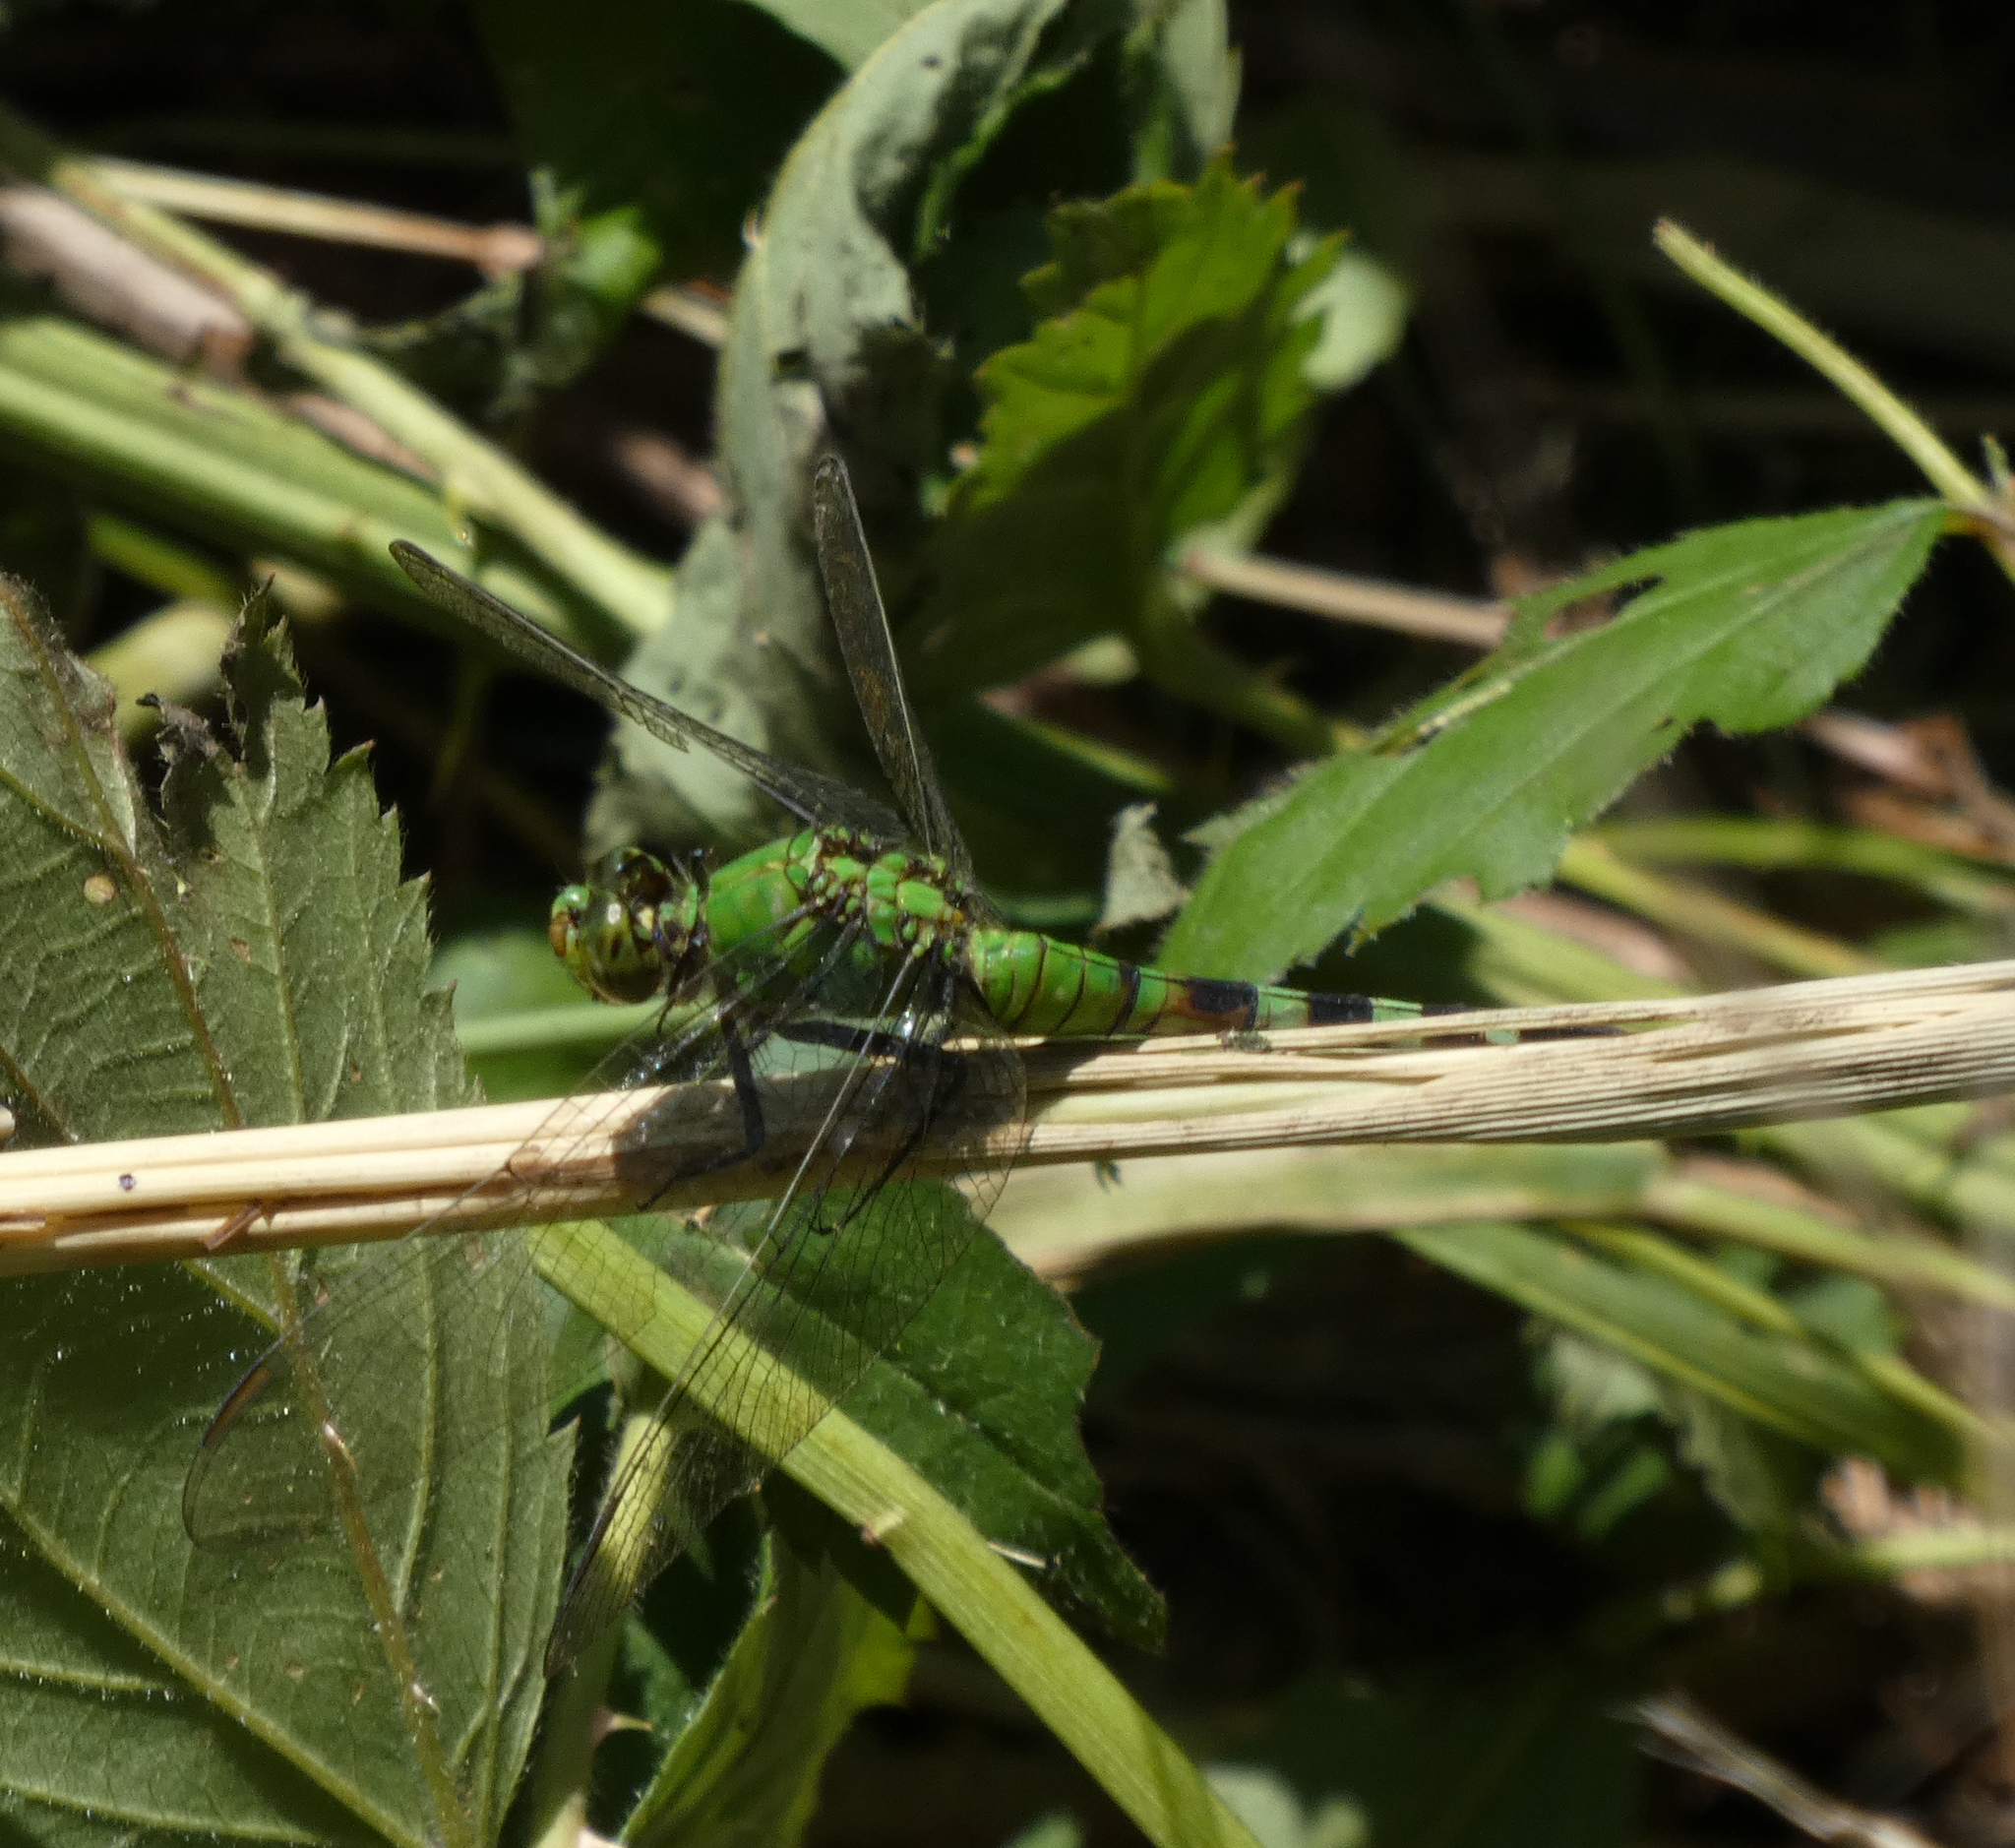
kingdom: Animalia
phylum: Arthropoda
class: Insecta
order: Odonata
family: Libellulidae
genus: Erythemis
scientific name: Erythemis simplicicollis
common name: Eastern pondhawk
